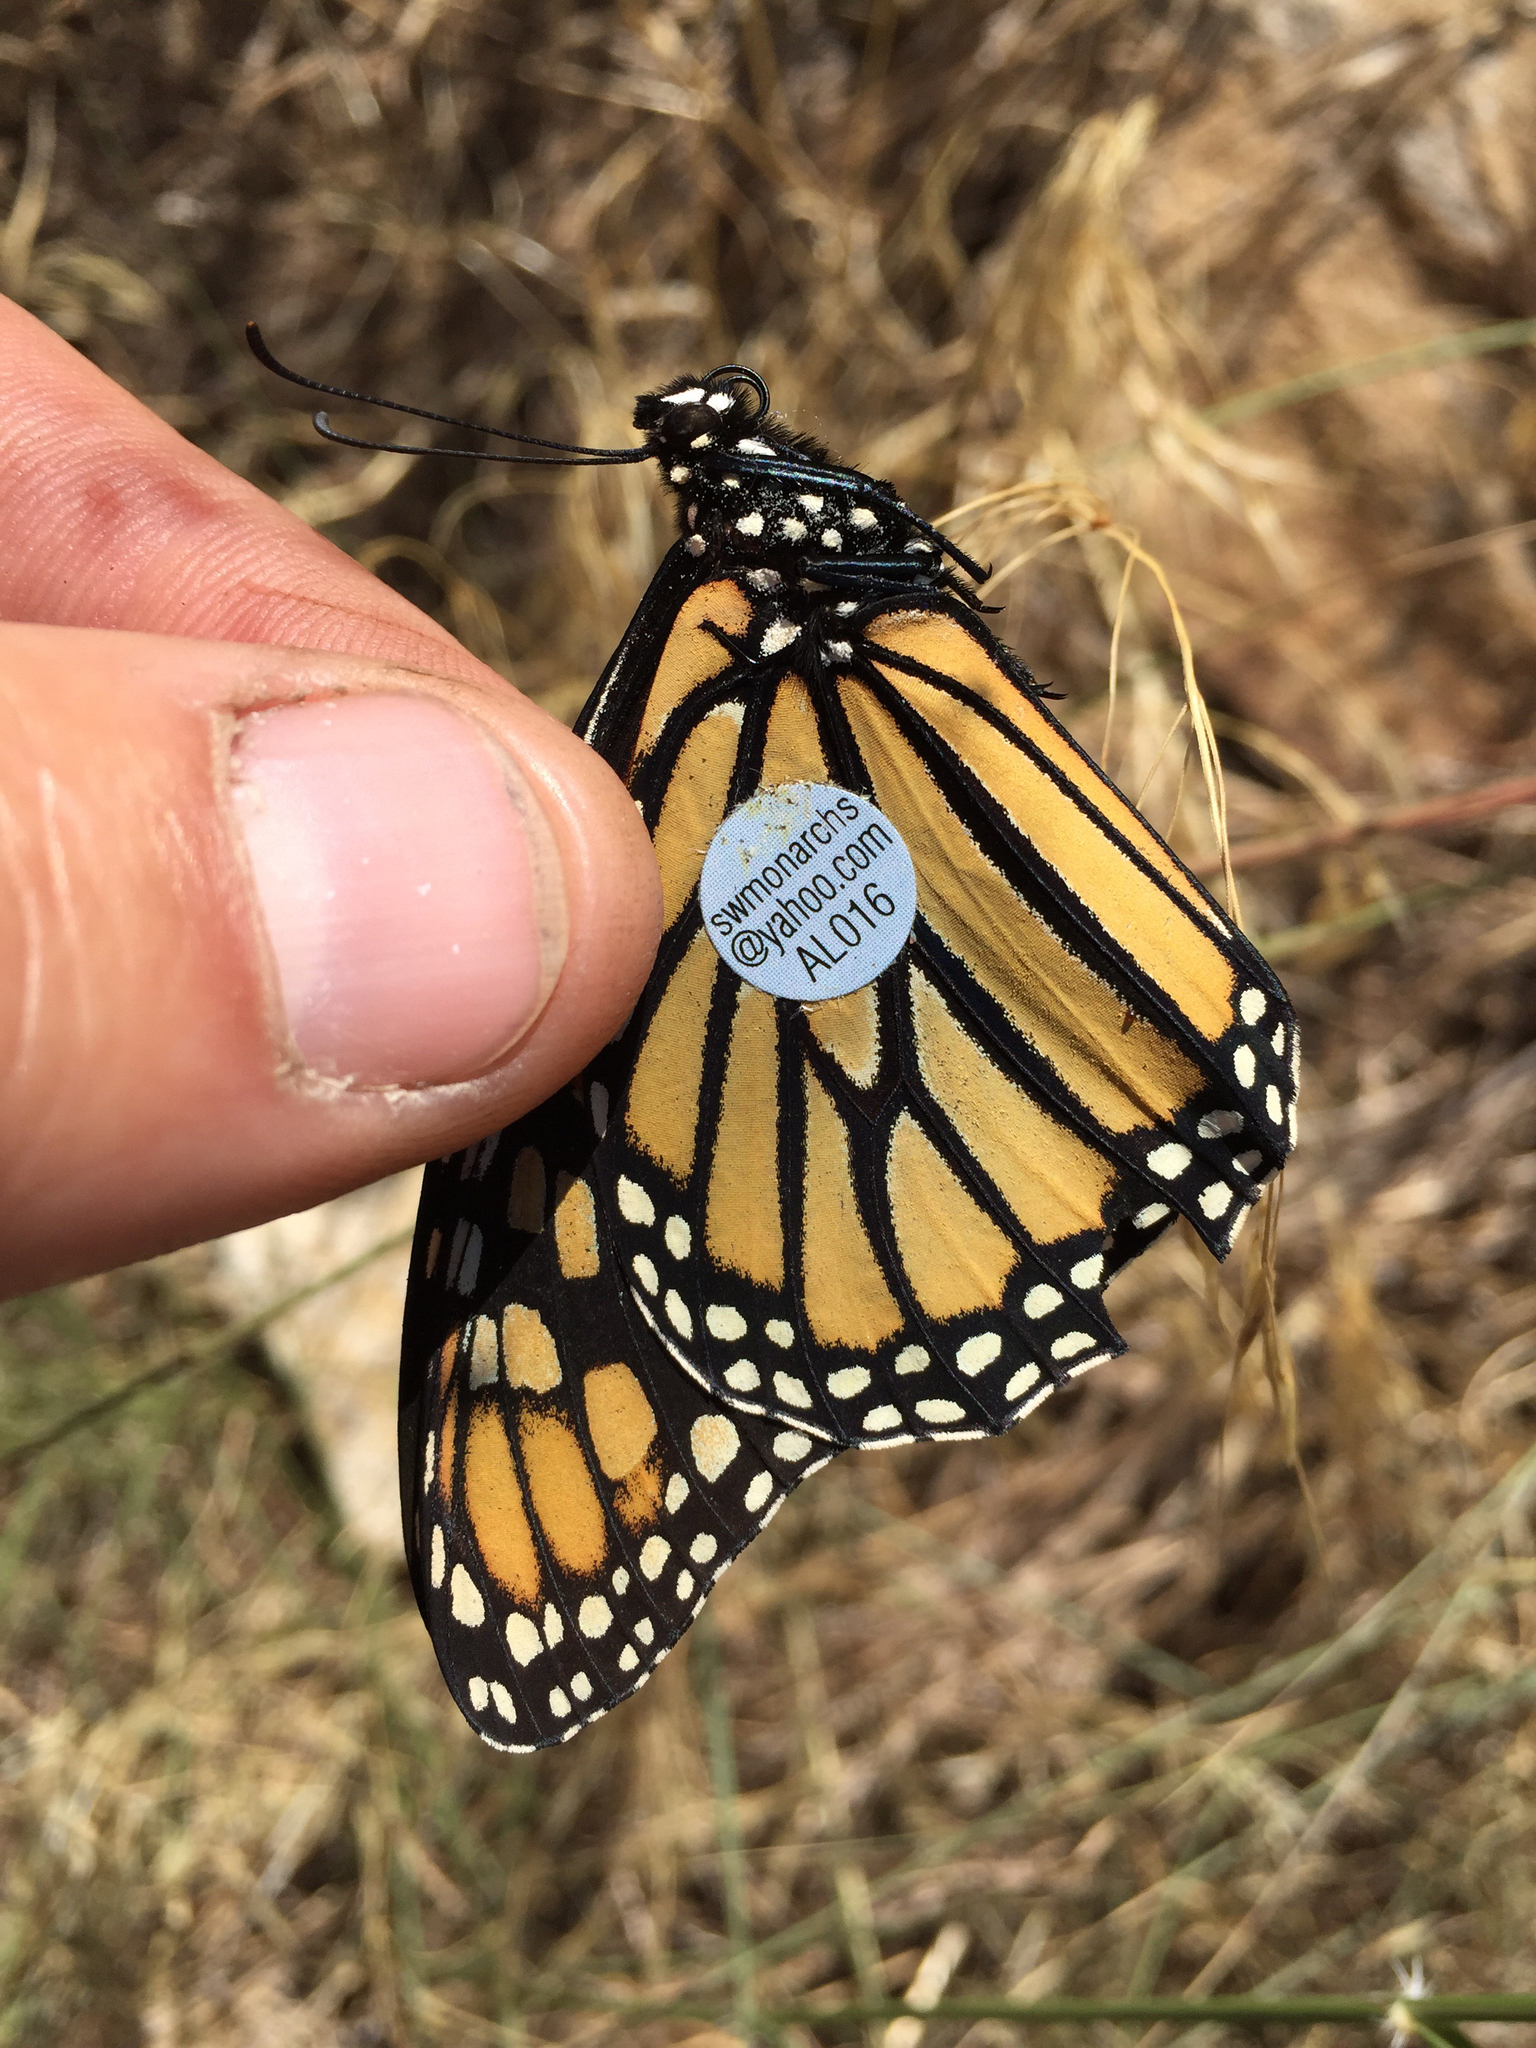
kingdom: Animalia
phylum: Arthropoda
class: Insecta
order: Lepidoptera
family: Nymphalidae
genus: Danaus
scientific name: Danaus plexippus
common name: Monarch
